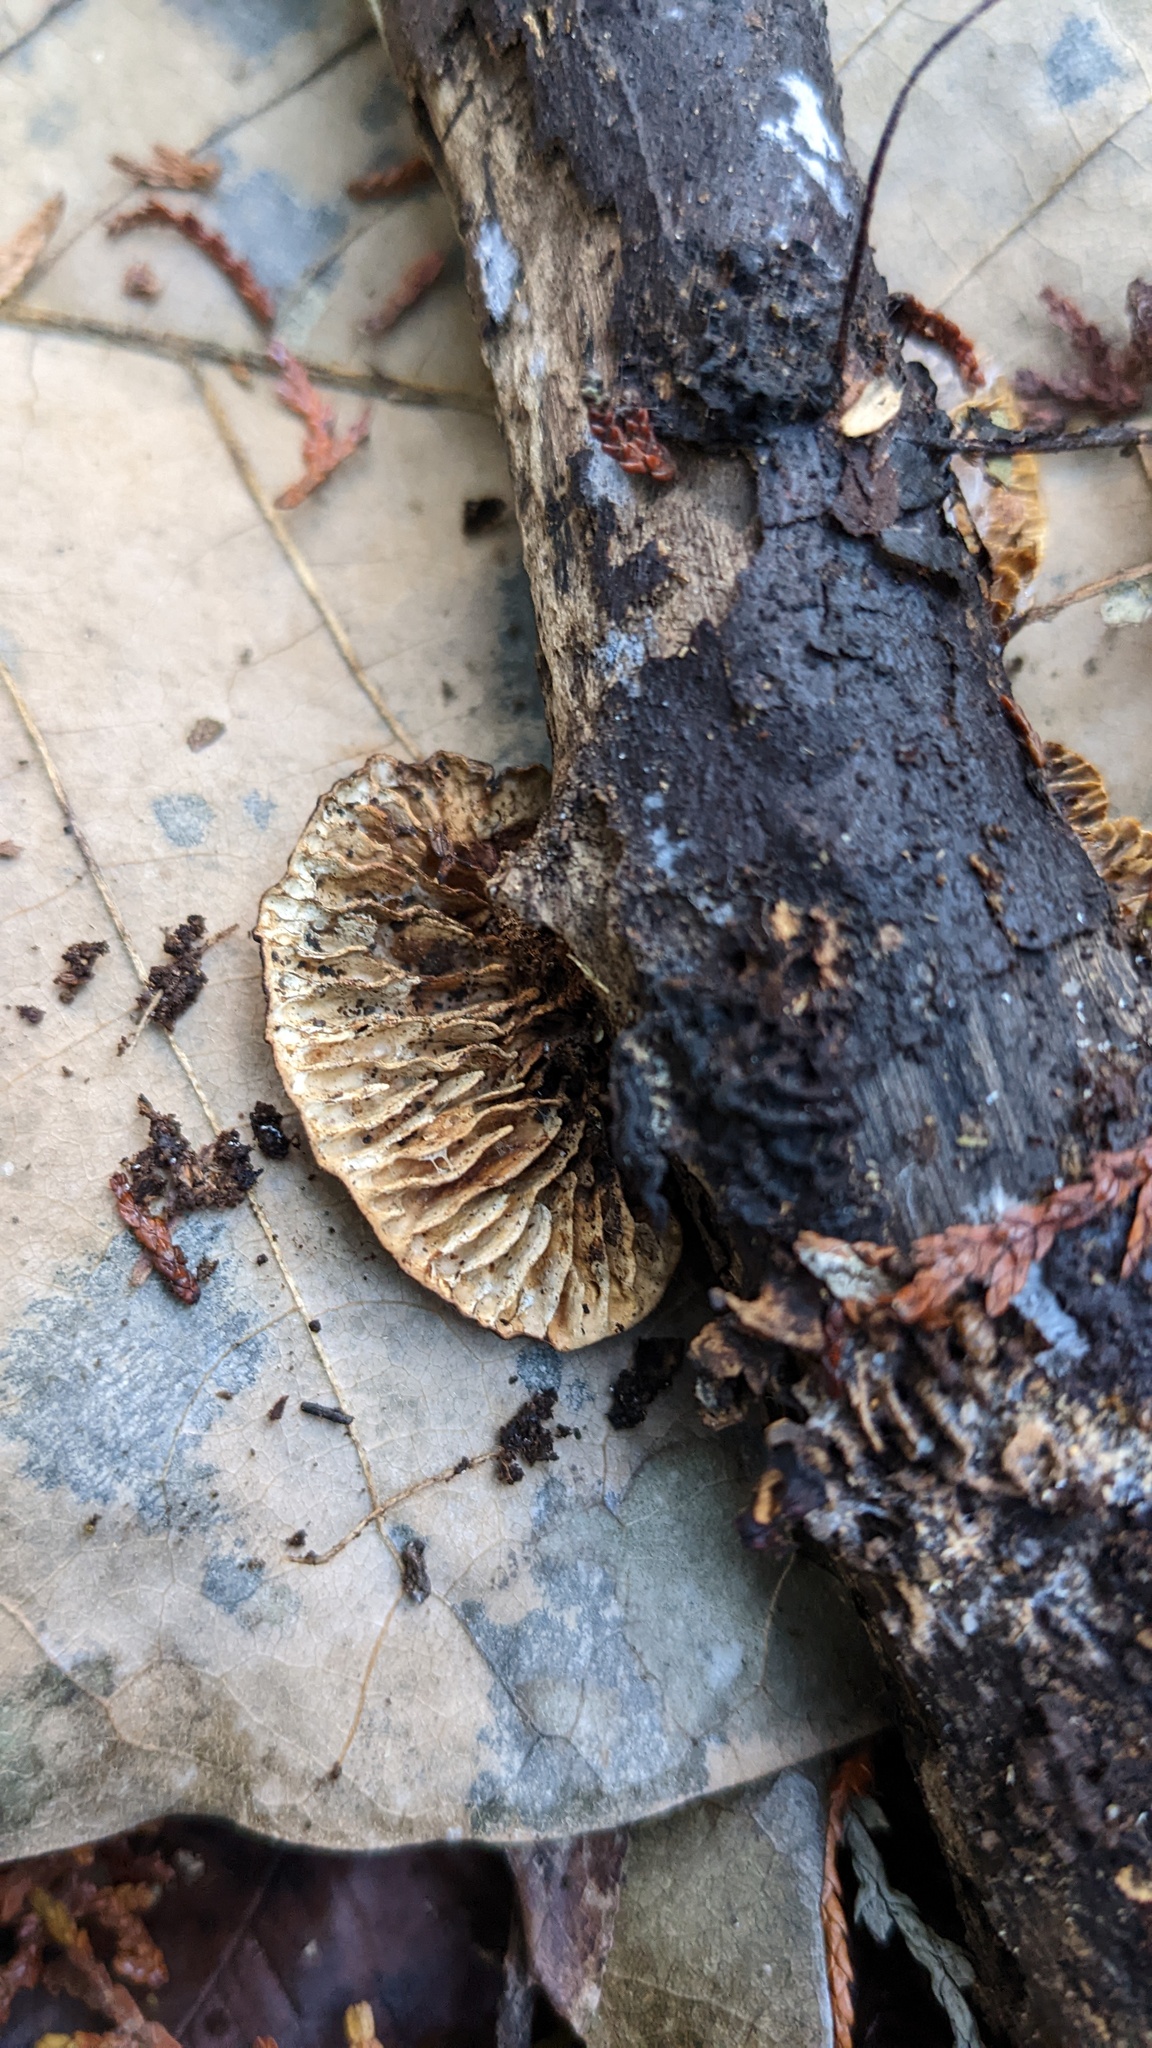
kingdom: Fungi
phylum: Basidiomycota
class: Agaricomycetes
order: Polyporales
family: Polyporaceae
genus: Lenzites
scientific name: Lenzites styracinus
